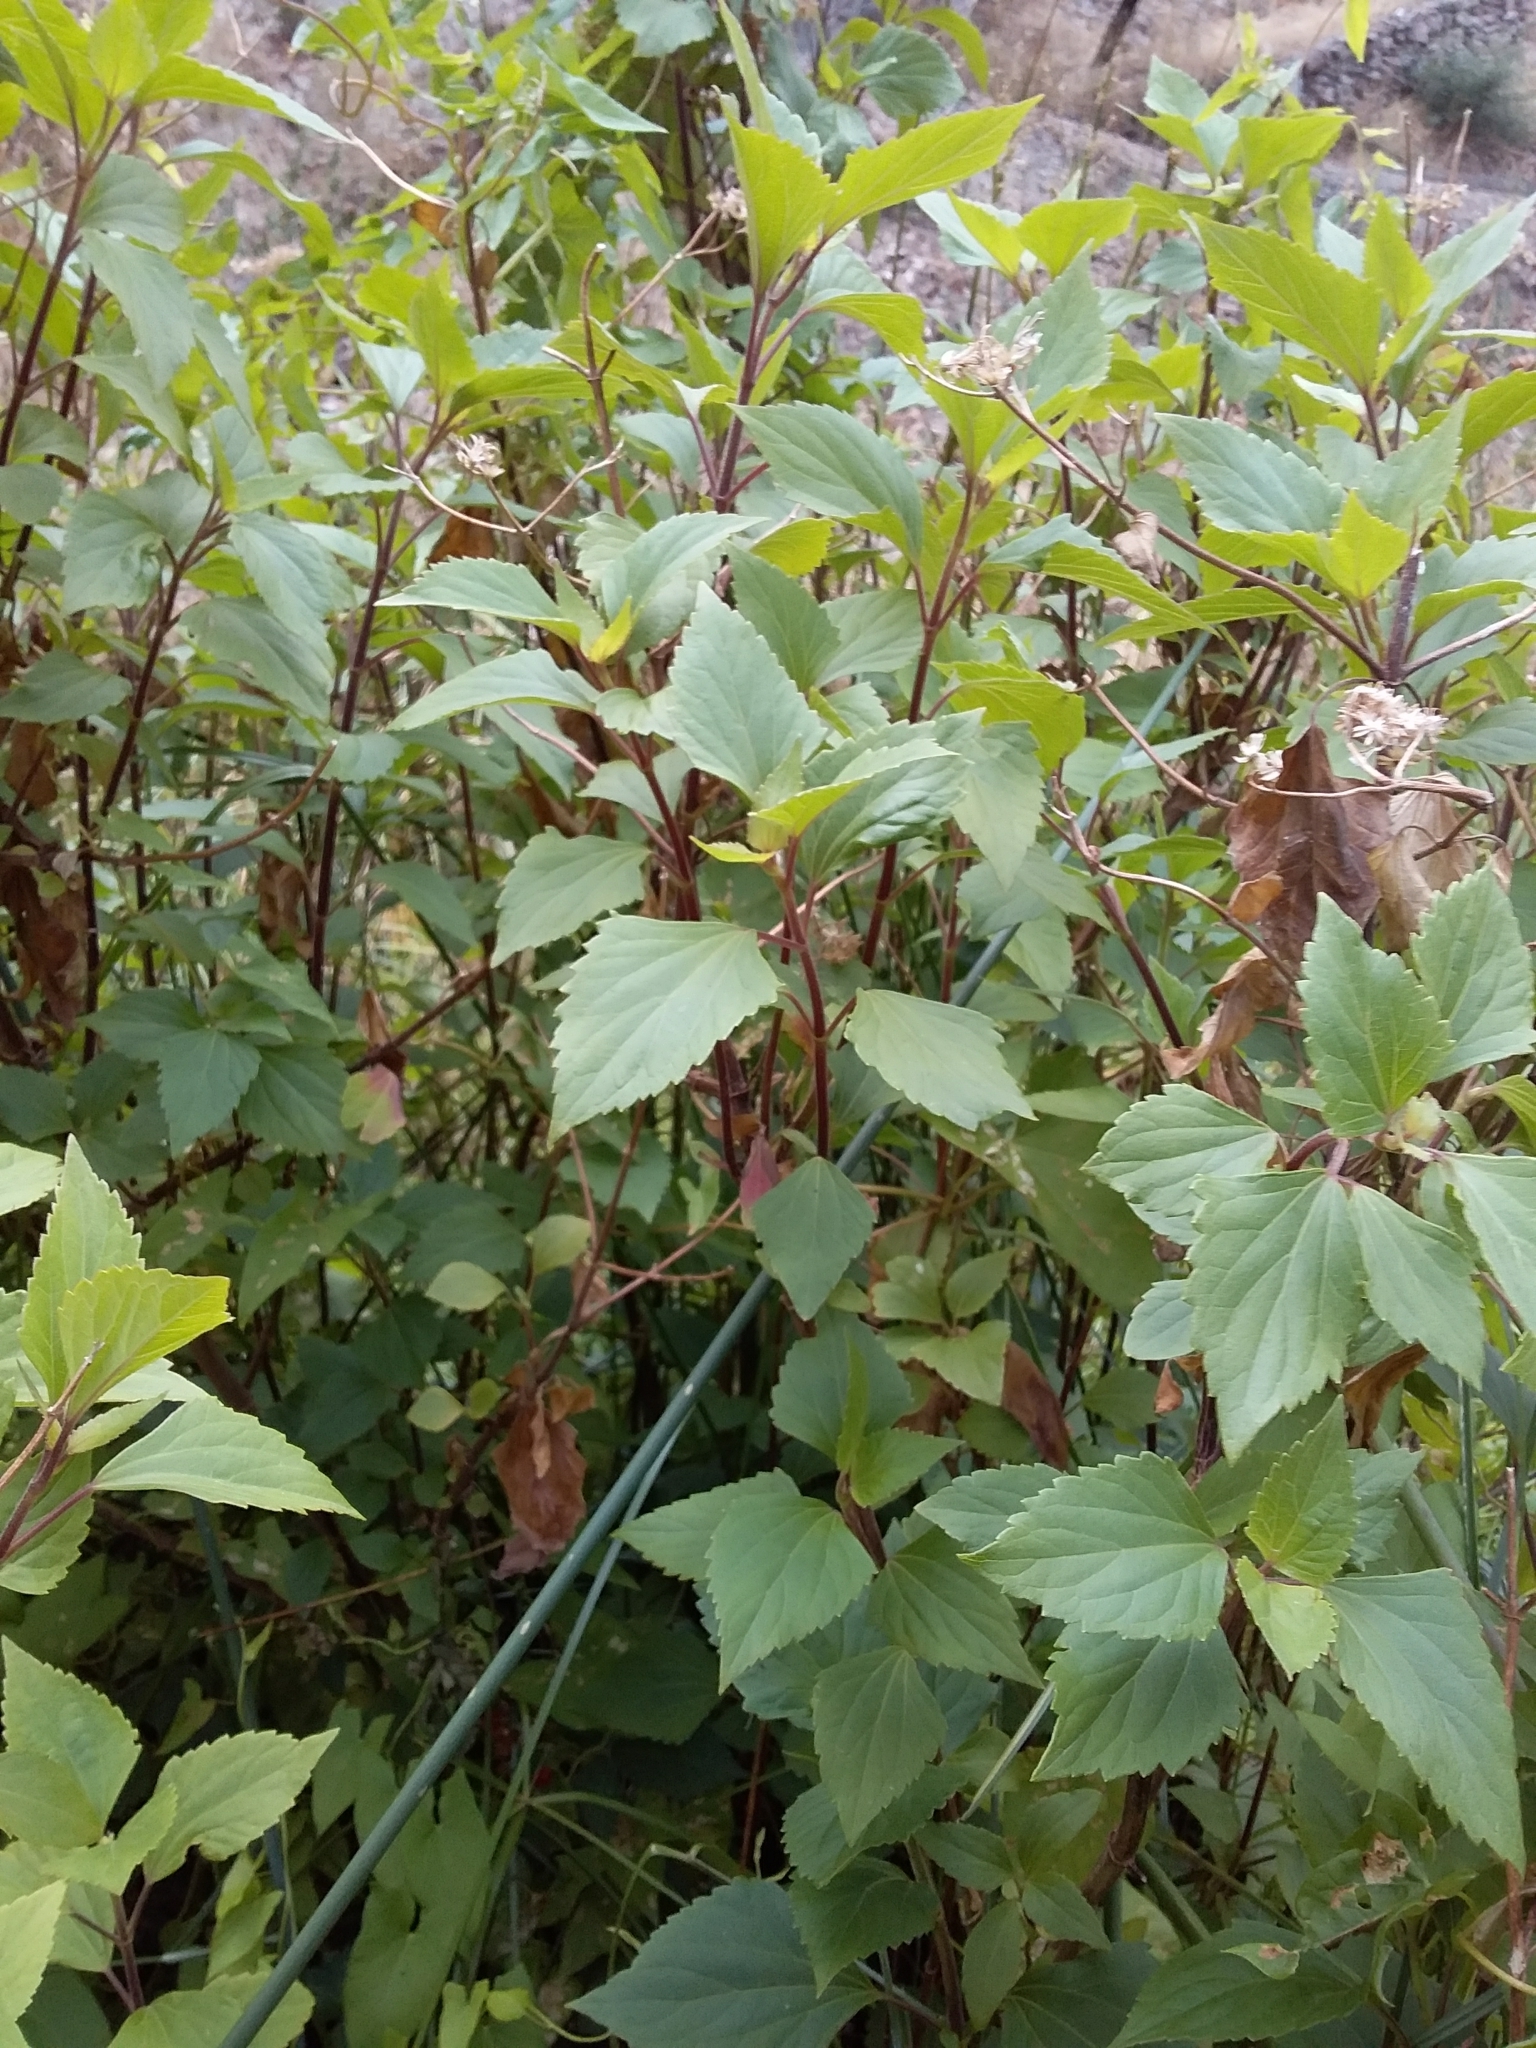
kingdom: Plantae
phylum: Tracheophyta
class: Magnoliopsida
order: Asterales
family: Asteraceae
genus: Ageratina
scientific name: Ageratina adenophora
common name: Sticky snakeroot
